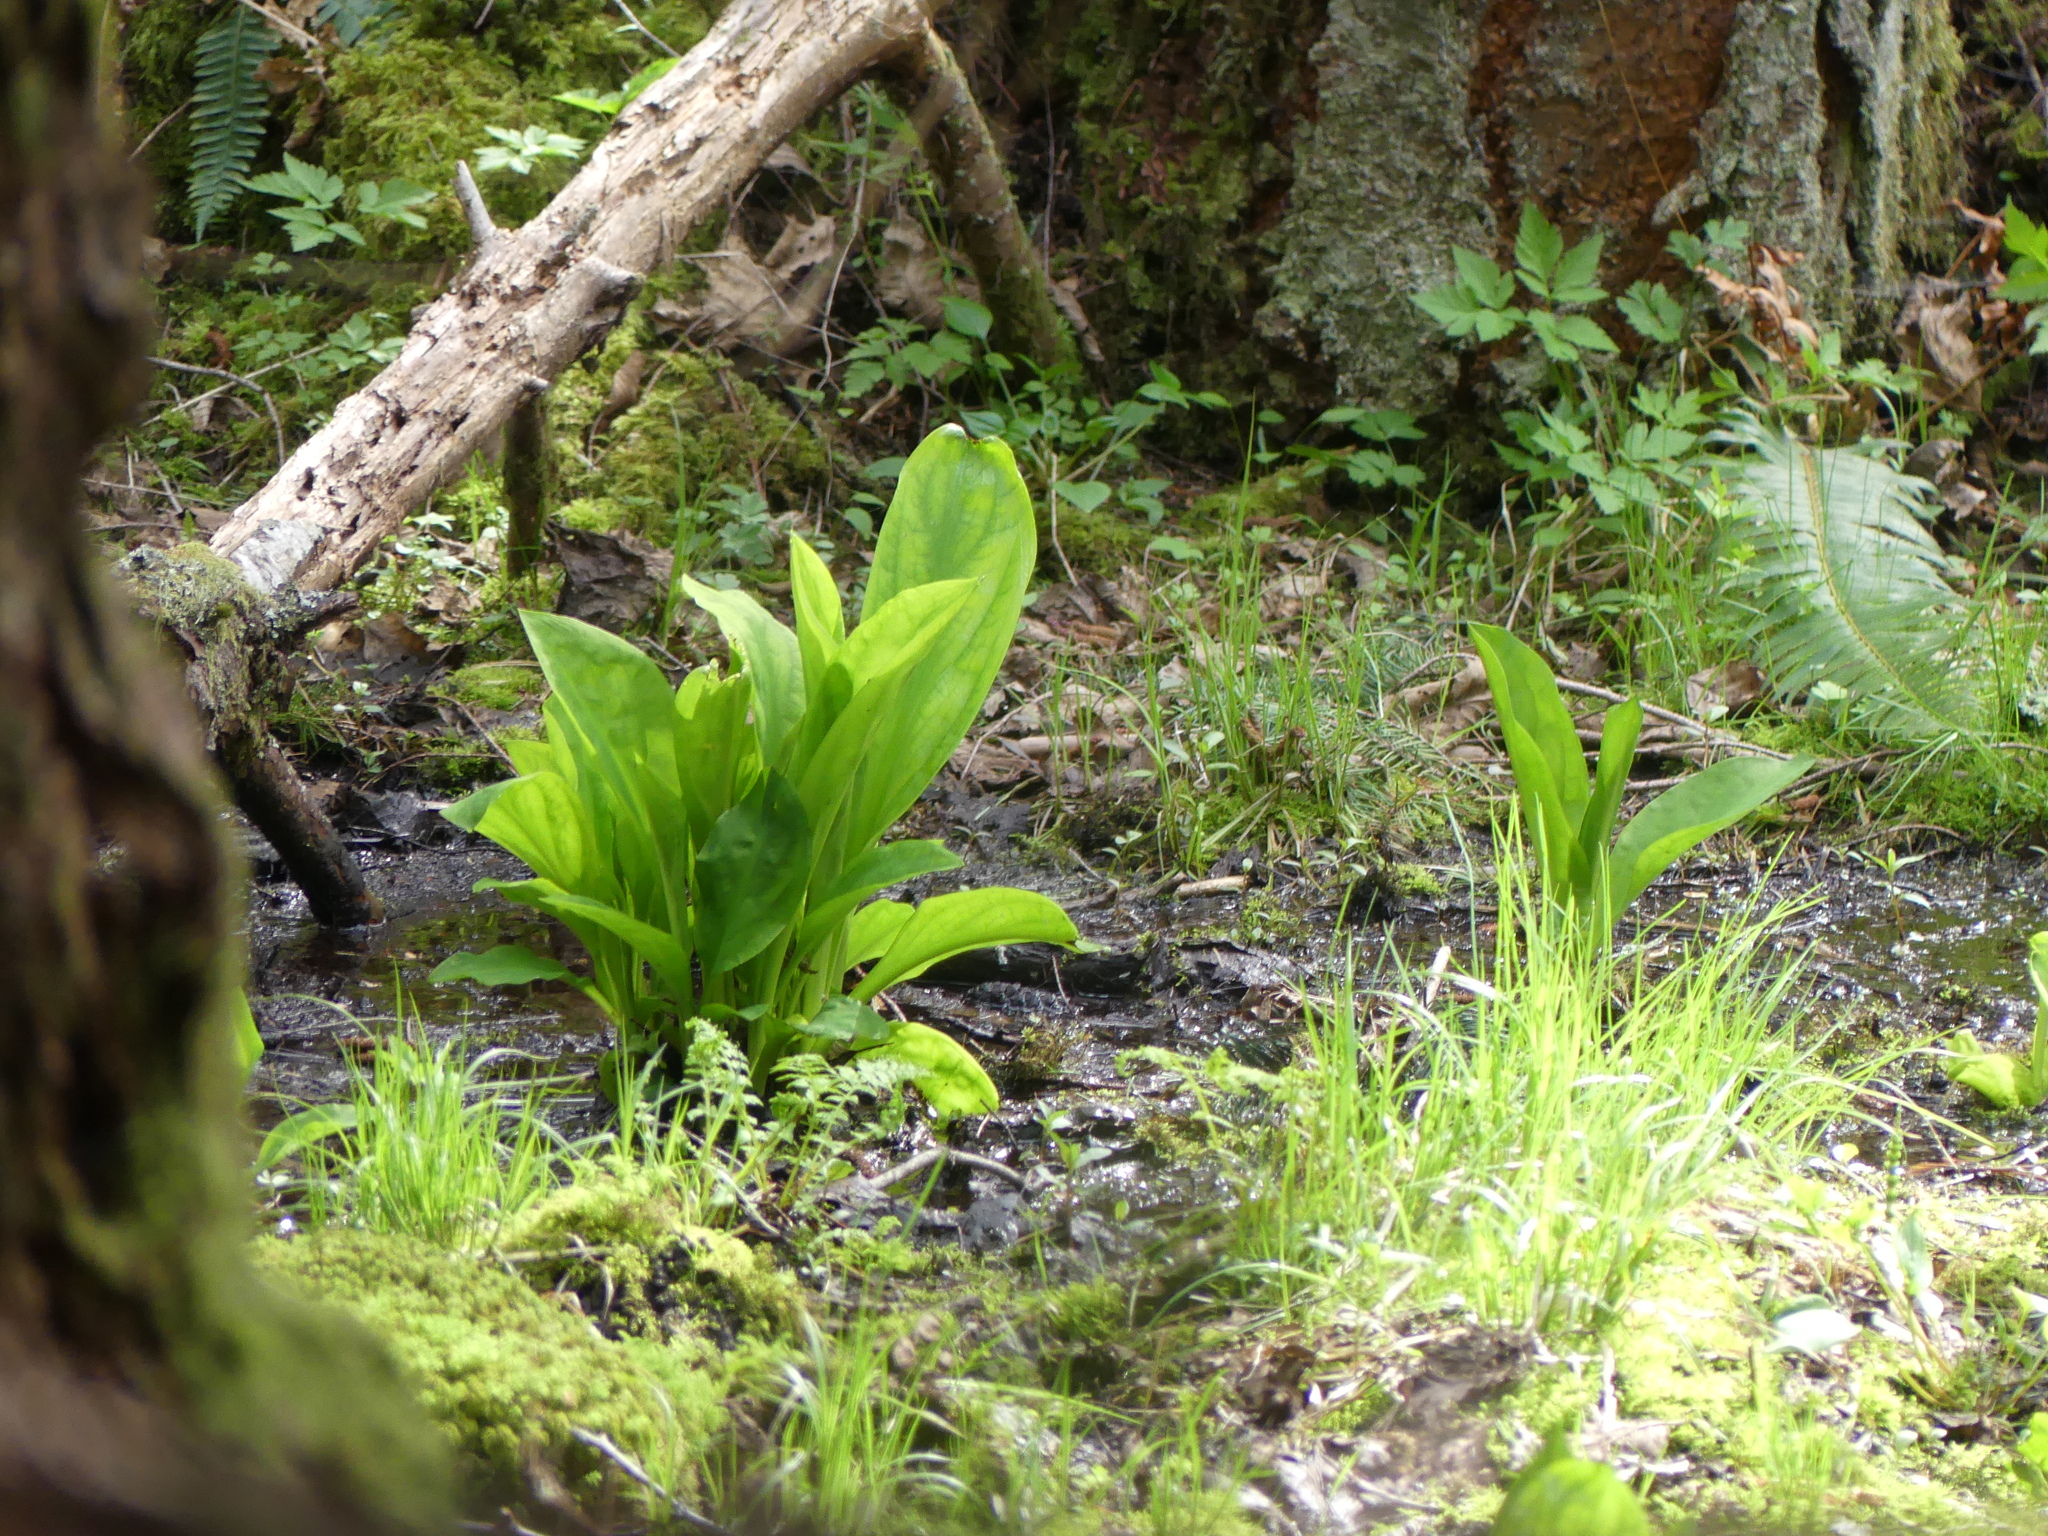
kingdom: Plantae
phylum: Tracheophyta
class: Liliopsida
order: Alismatales
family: Araceae
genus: Lysichiton
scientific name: Lysichiton americanus
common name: American skunk cabbage
